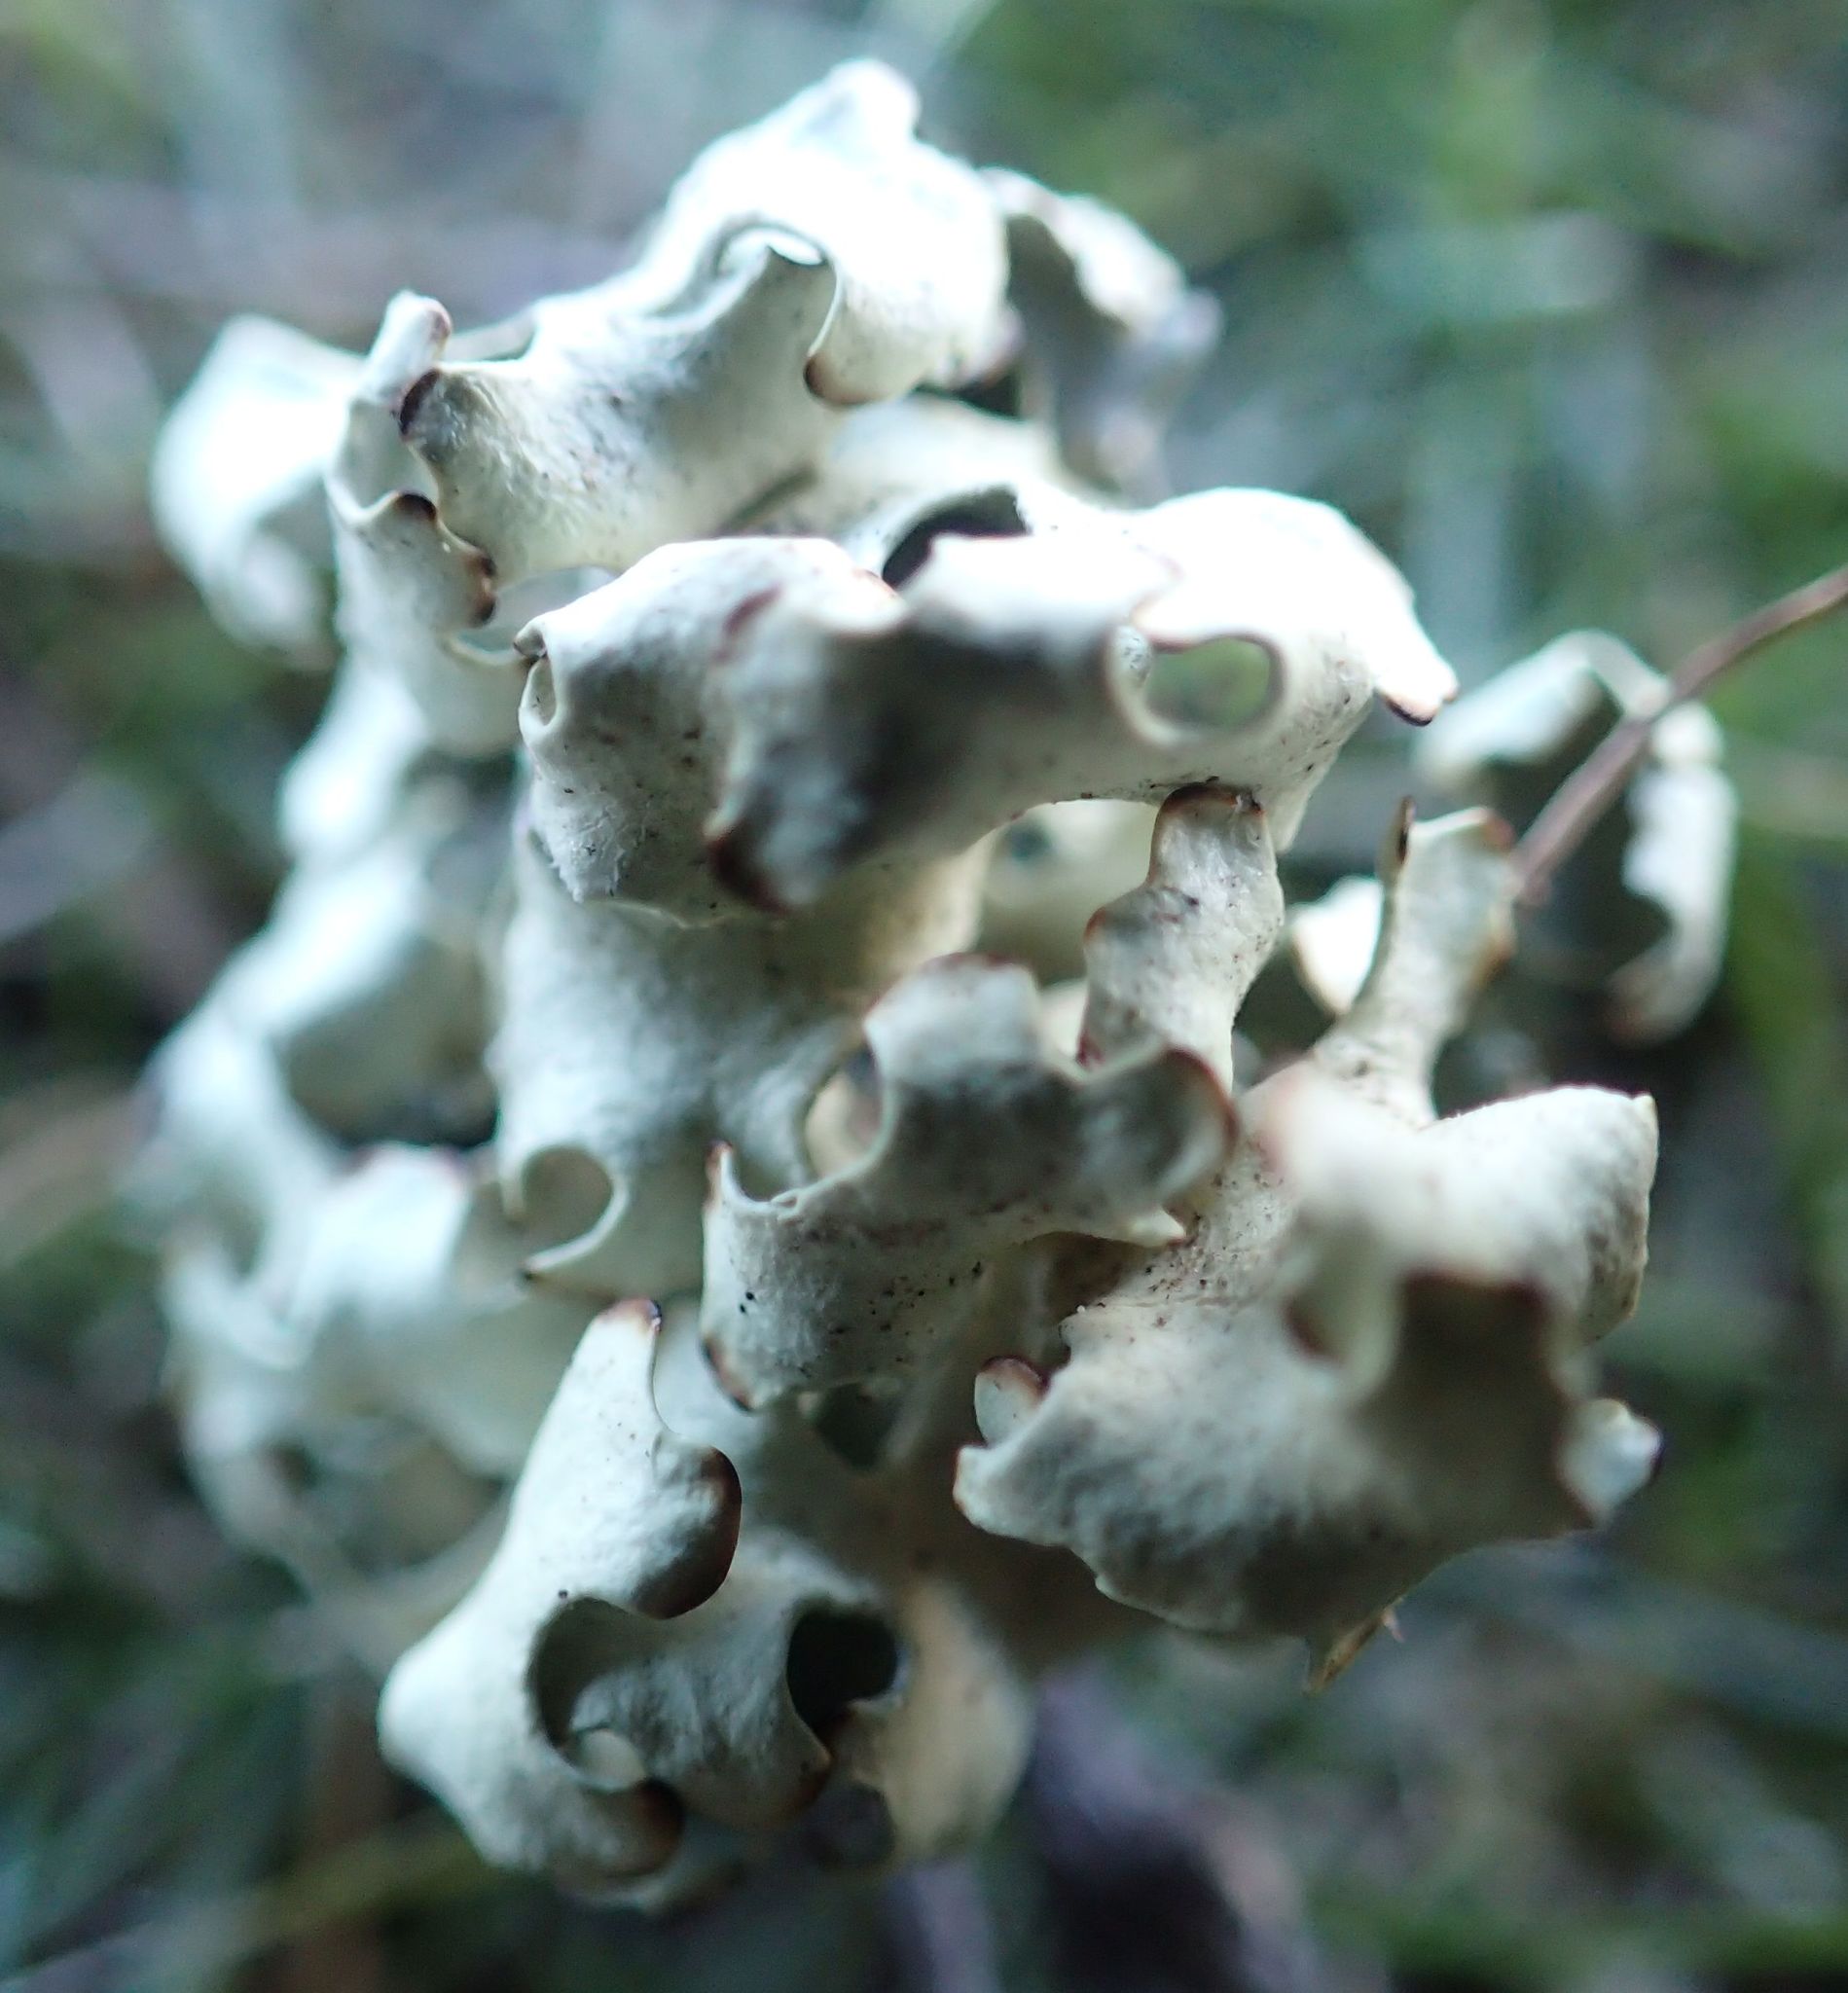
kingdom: Fungi
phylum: Ascomycota
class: Lecanoromycetes
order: Lecanorales
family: Parmeliaceae
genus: Xanthoparmelia
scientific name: Xanthoparmelia semiviridis
